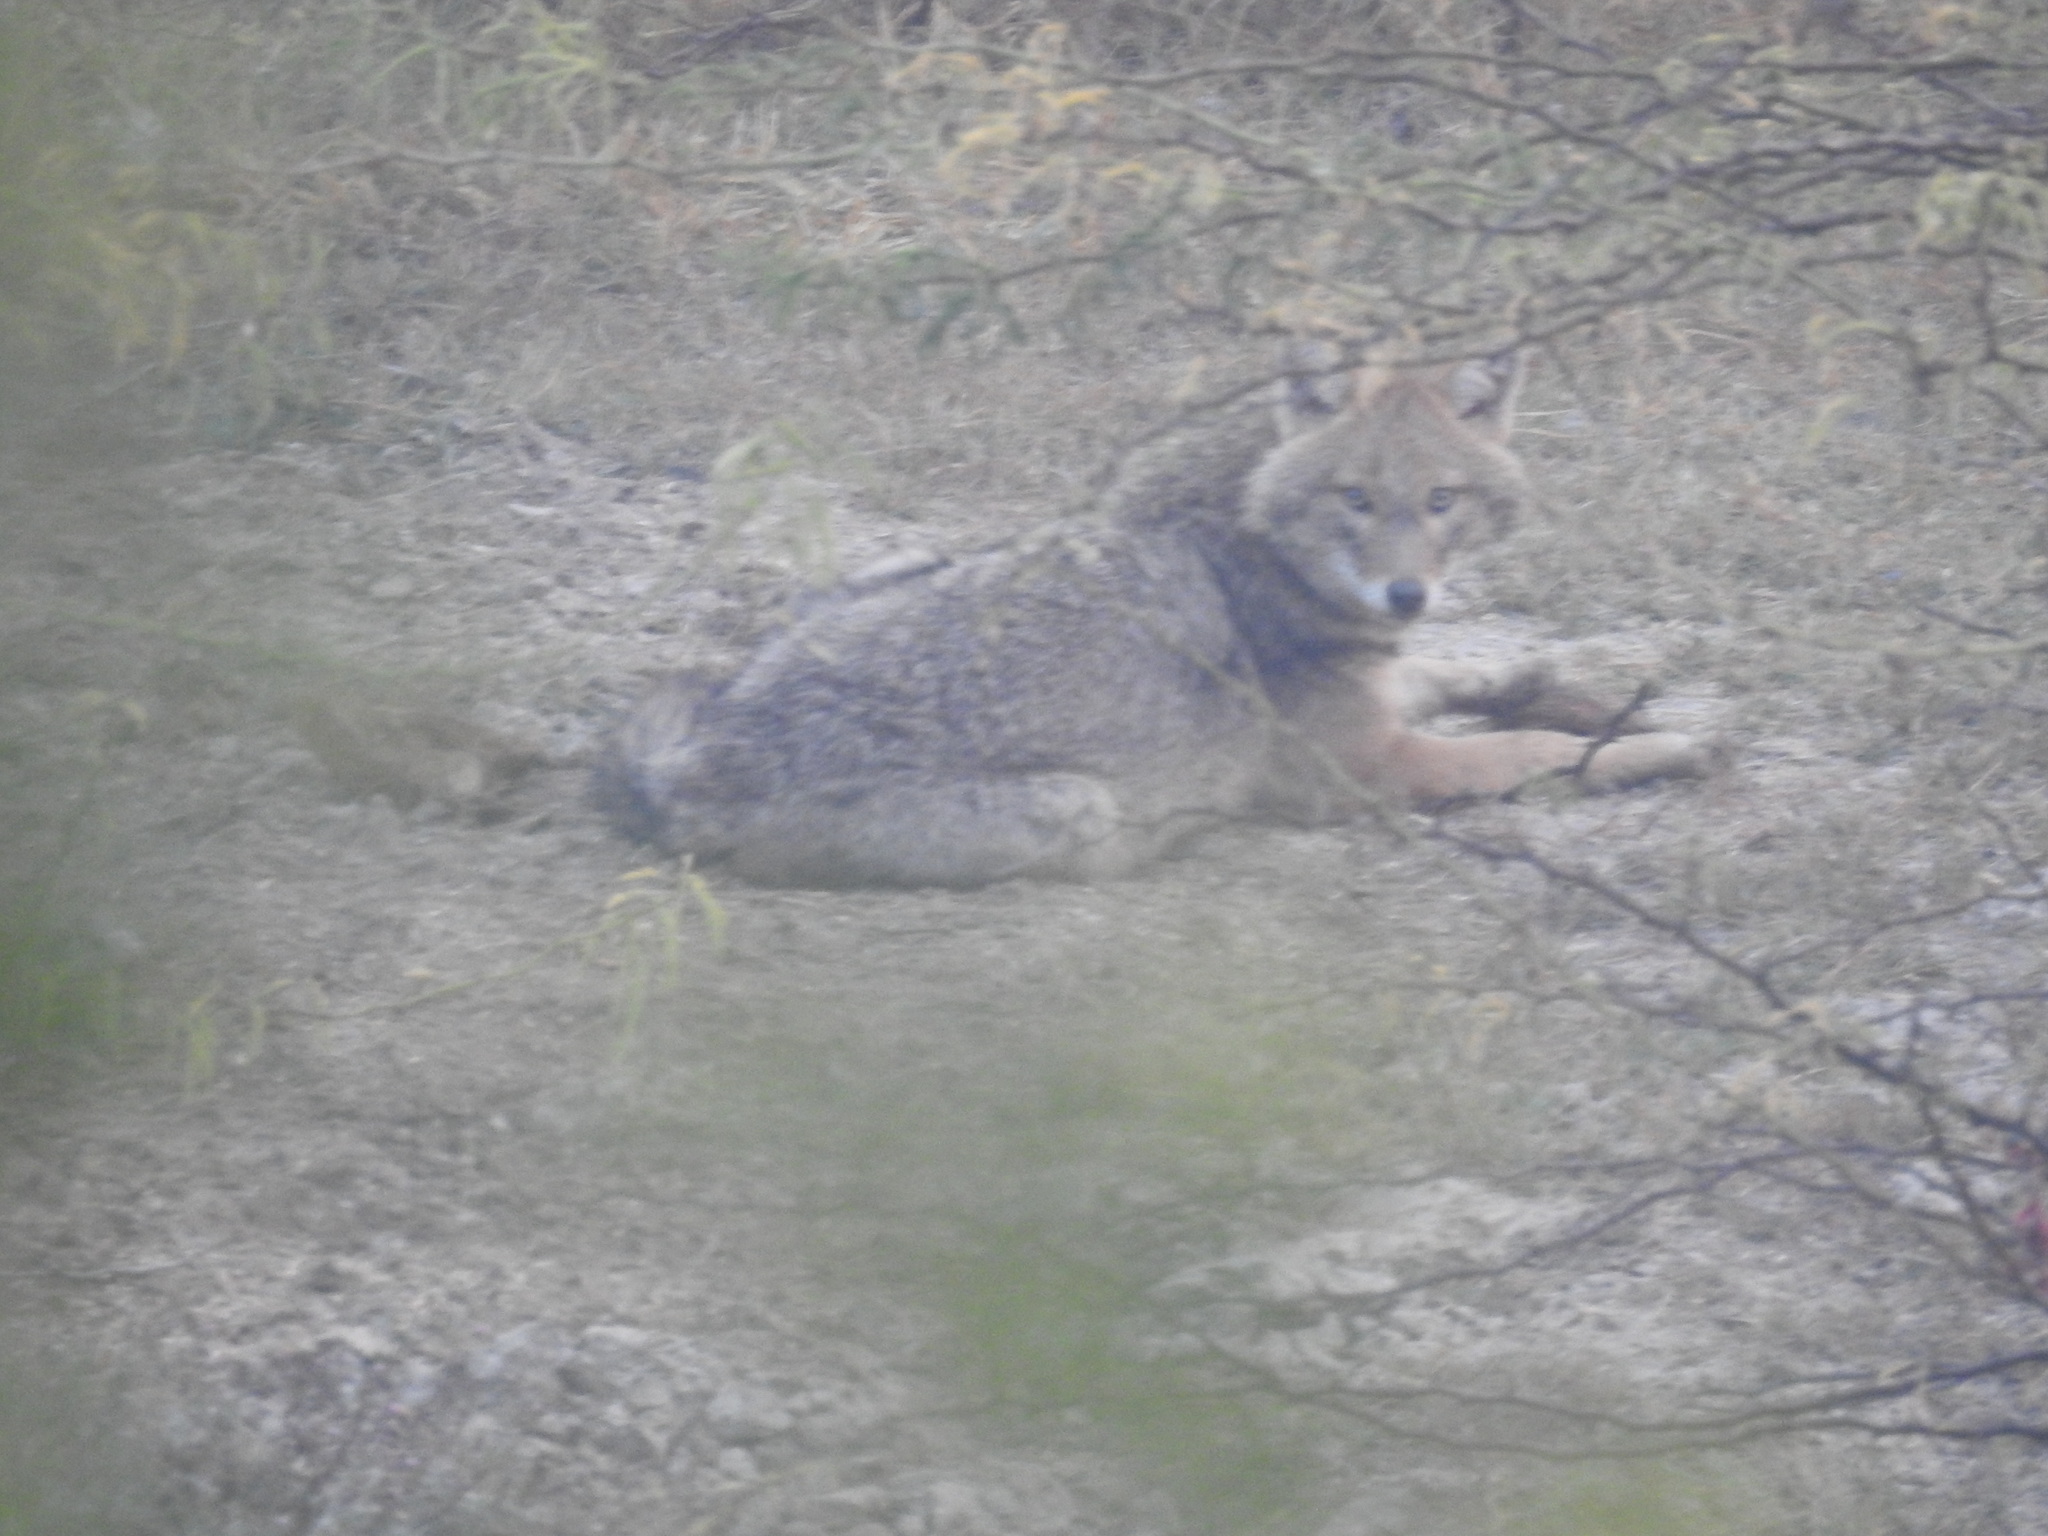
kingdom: Animalia
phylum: Chordata
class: Mammalia
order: Carnivora
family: Canidae
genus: Canis
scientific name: Canis aureus
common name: Golden jackal
